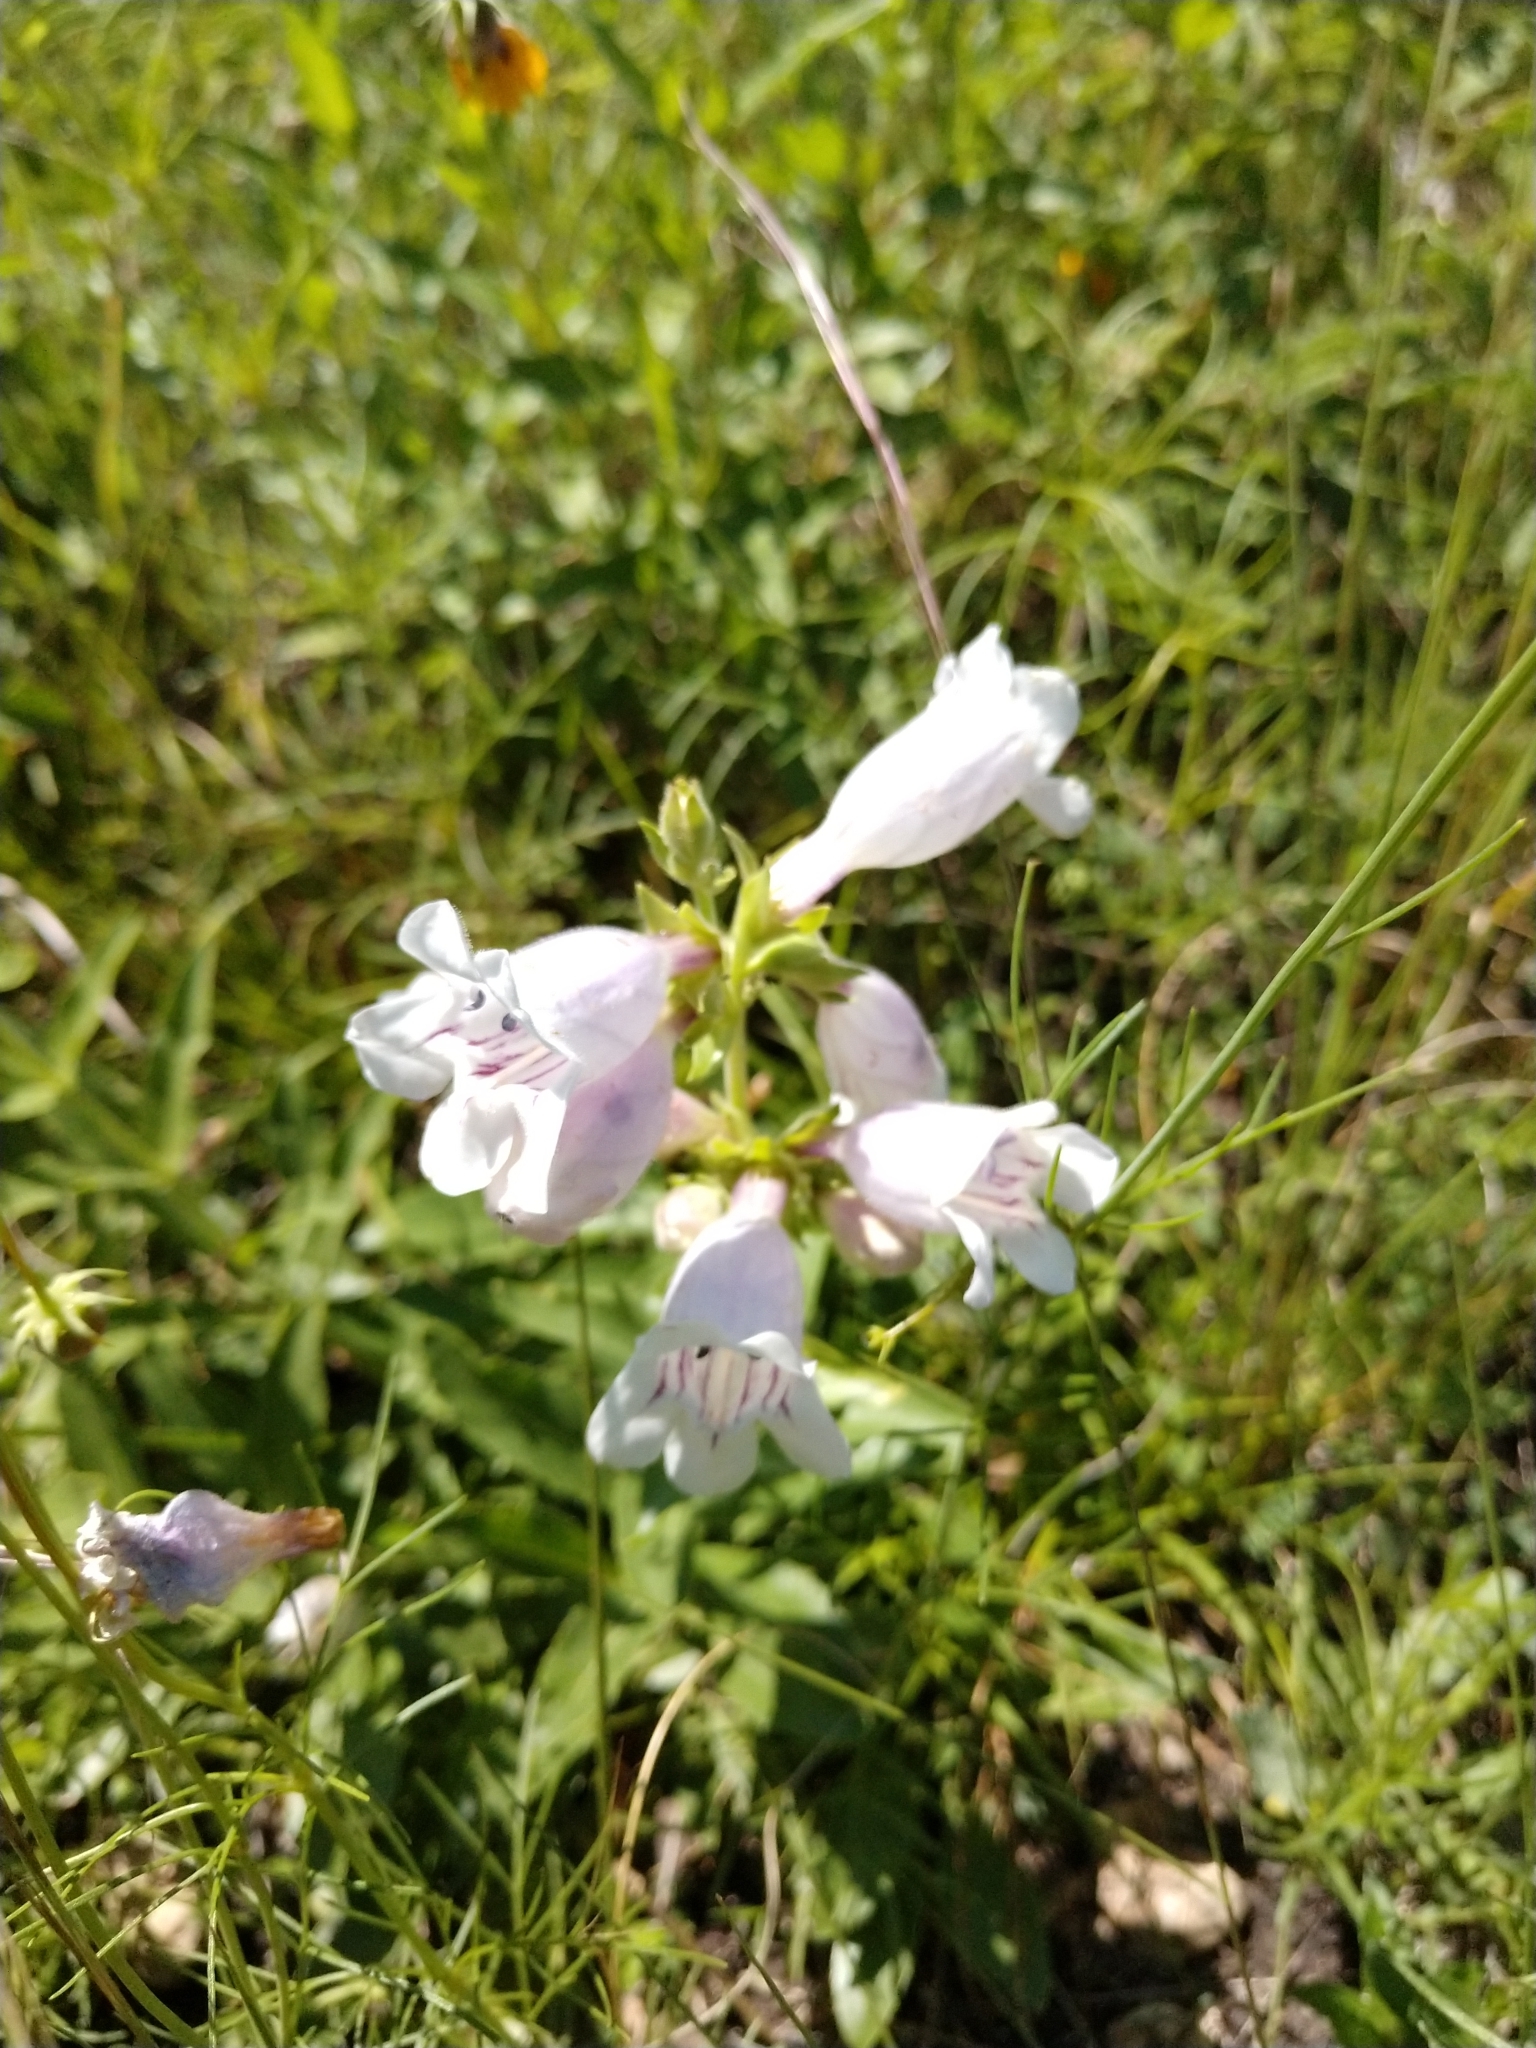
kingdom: Plantae
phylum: Tracheophyta
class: Magnoliopsida
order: Lamiales
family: Plantaginaceae
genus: Penstemon
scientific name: Penstemon cobaea
